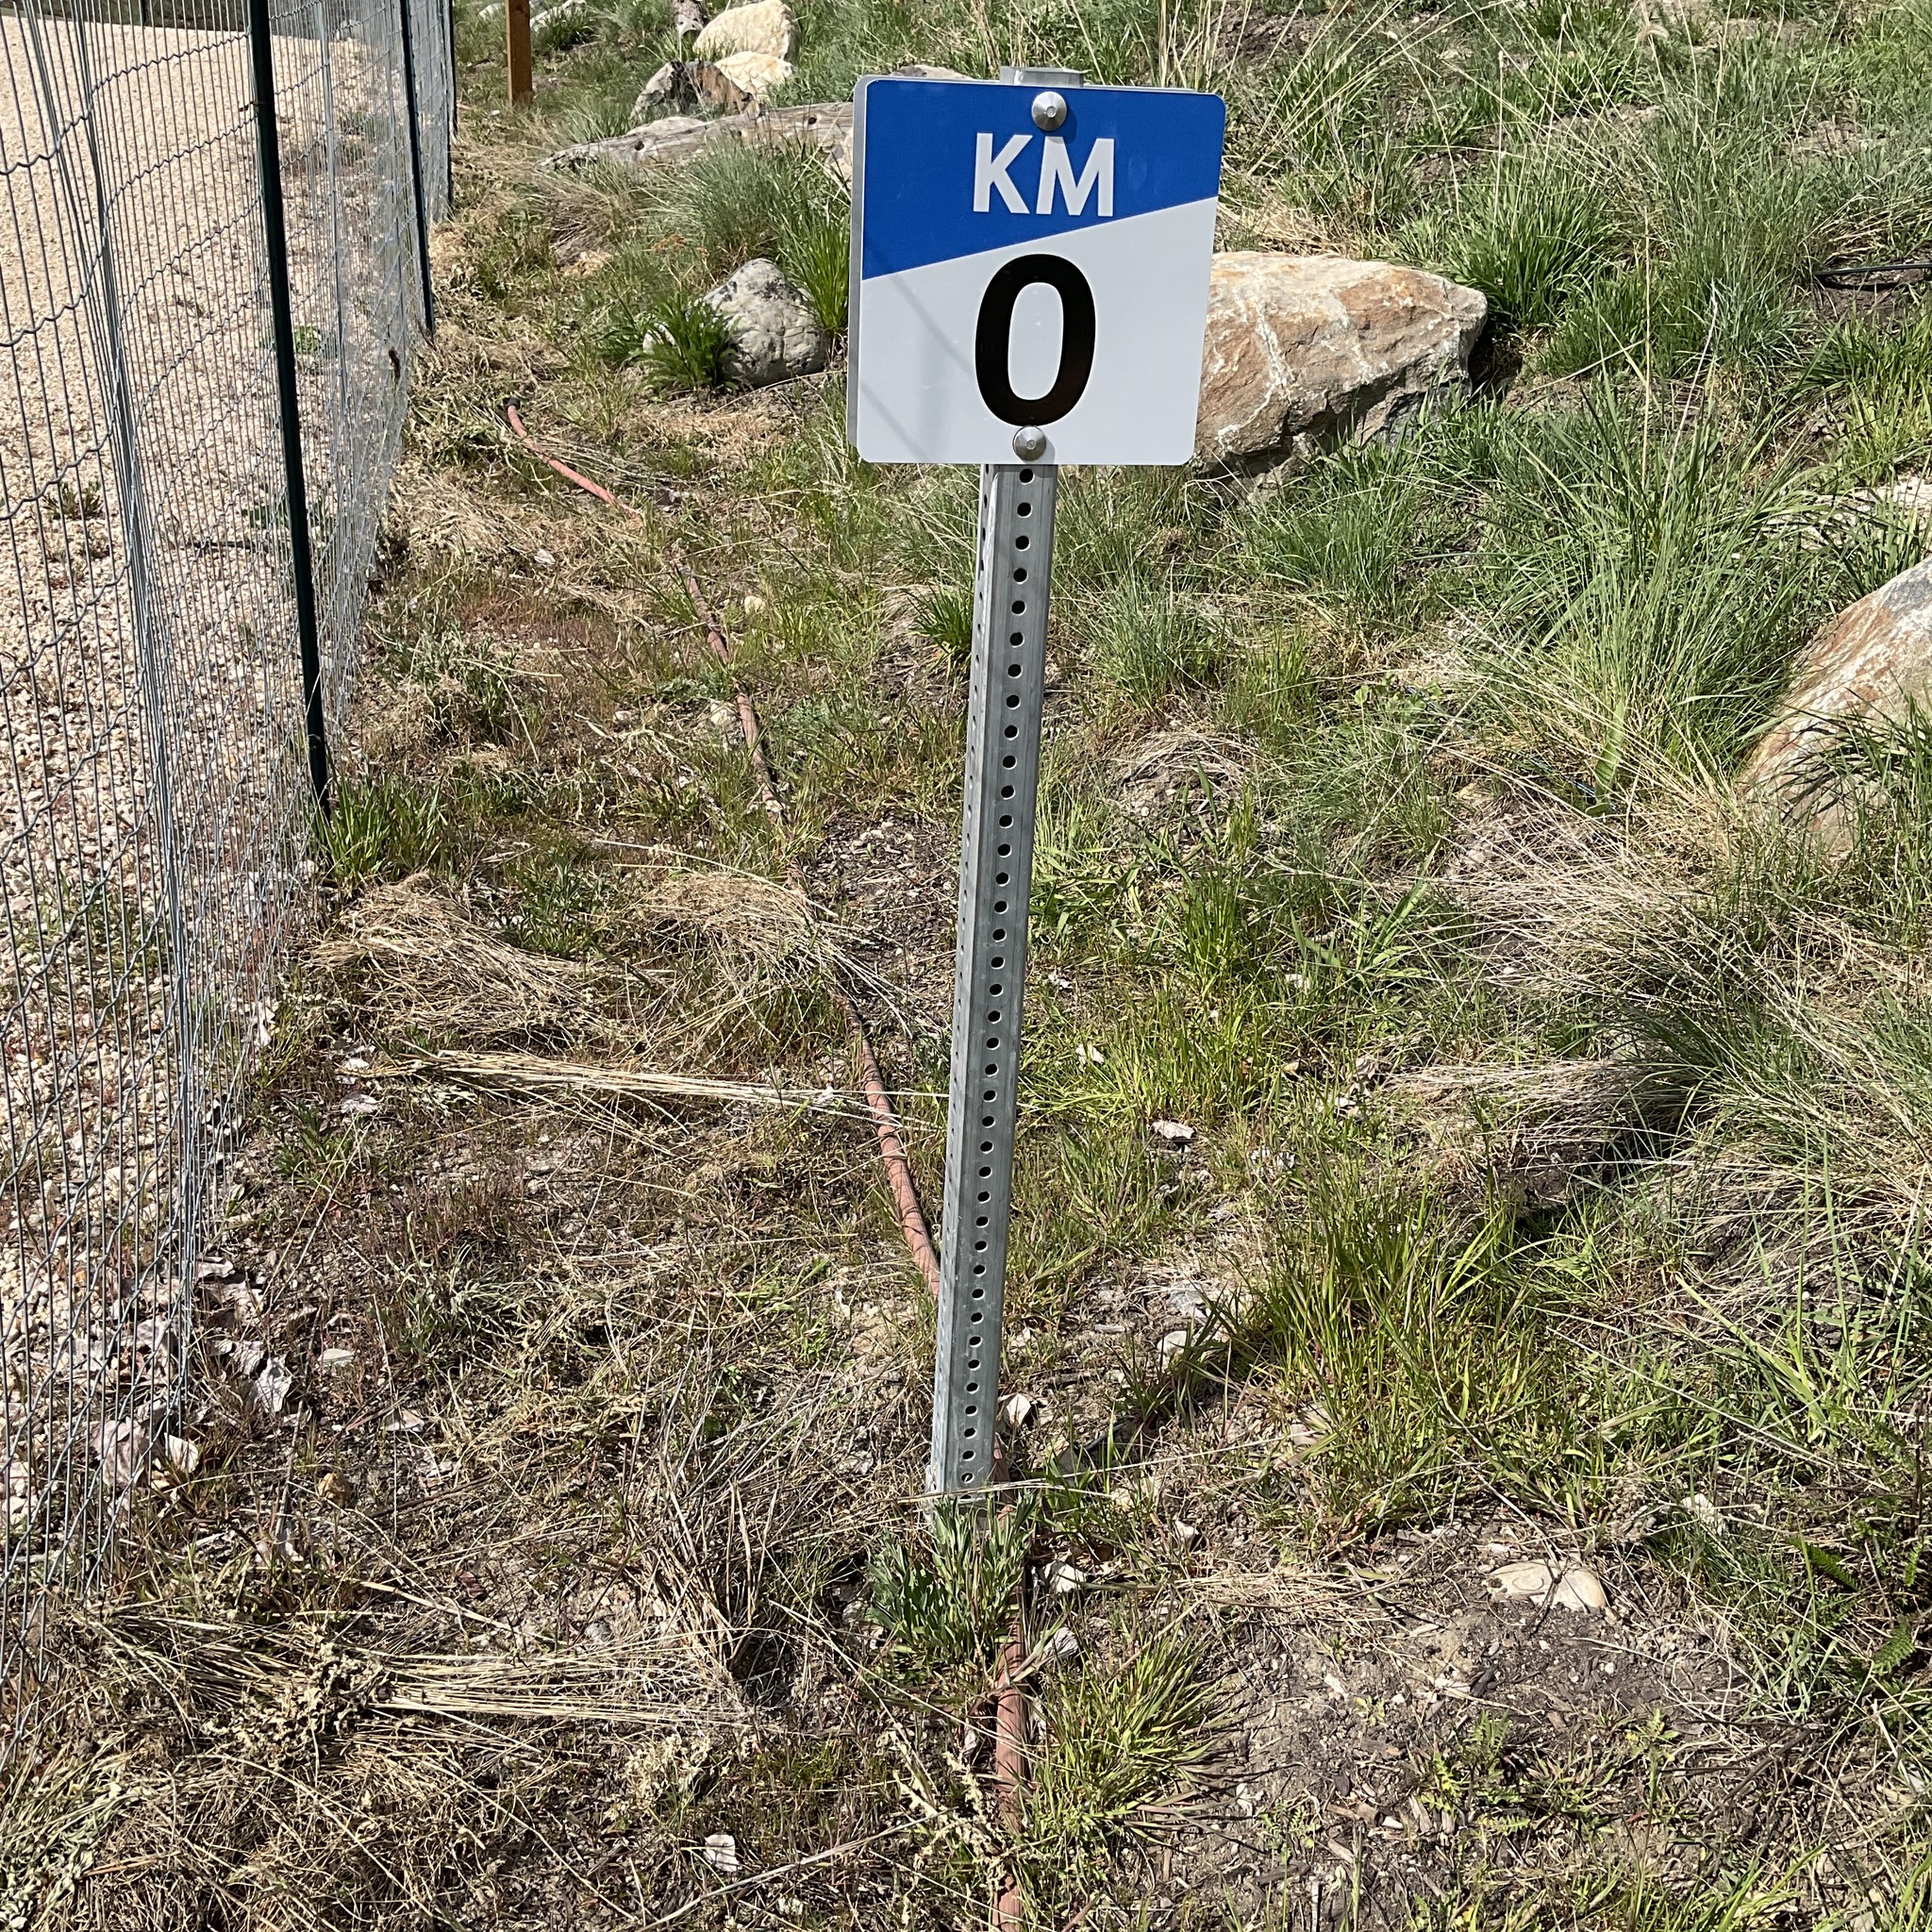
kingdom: Plantae
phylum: Tracheophyta
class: Magnoliopsida
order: Brassicales
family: Brassicaceae
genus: Berteroa
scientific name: Berteroa incana
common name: Hoary alison
